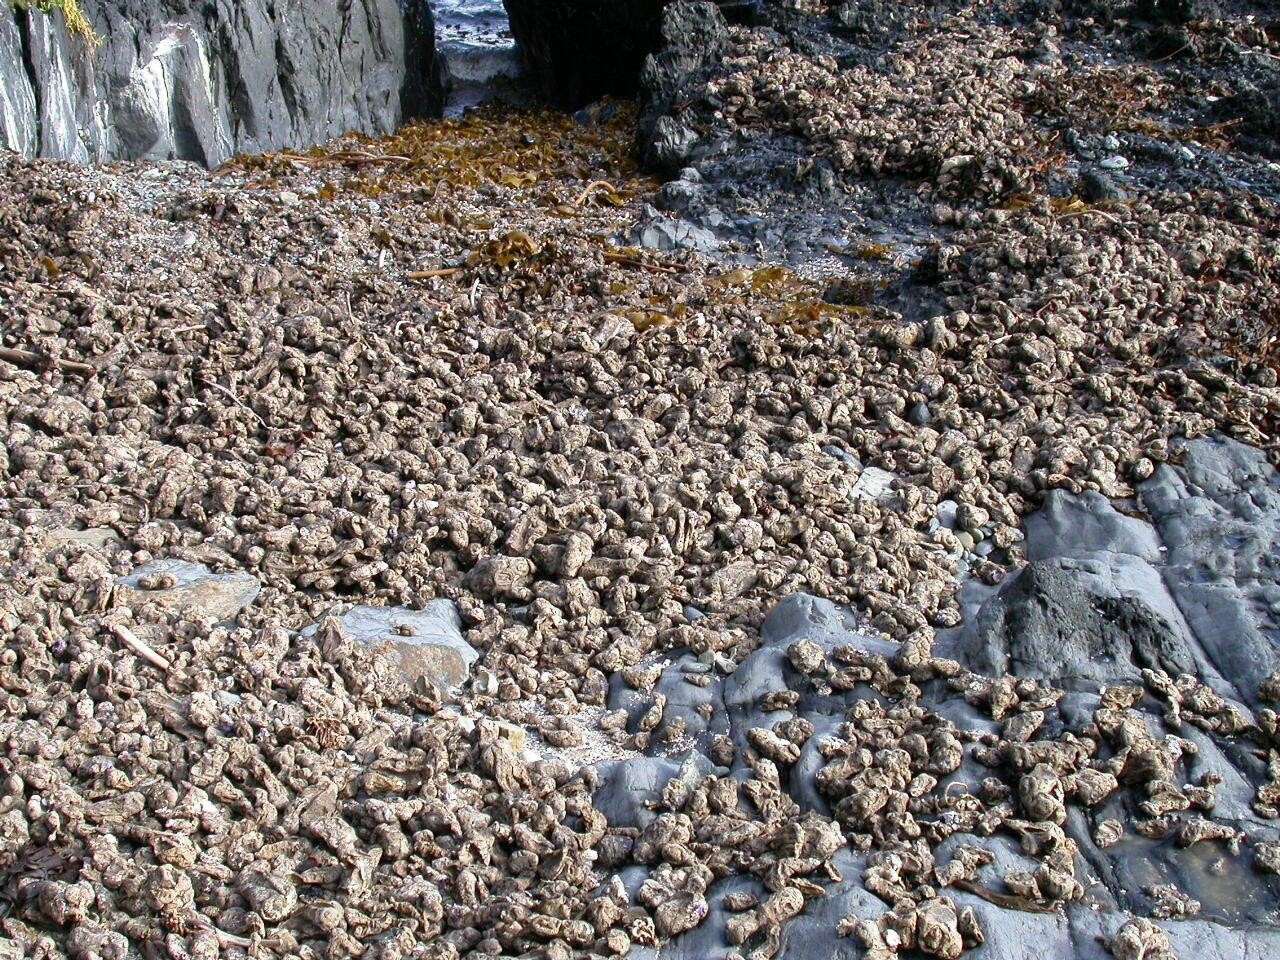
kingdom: Animalia
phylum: Chordata
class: Ascidiacea
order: Stolidobranchia
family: Pyuridae
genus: Pyura
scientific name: Pyura praeputialis
